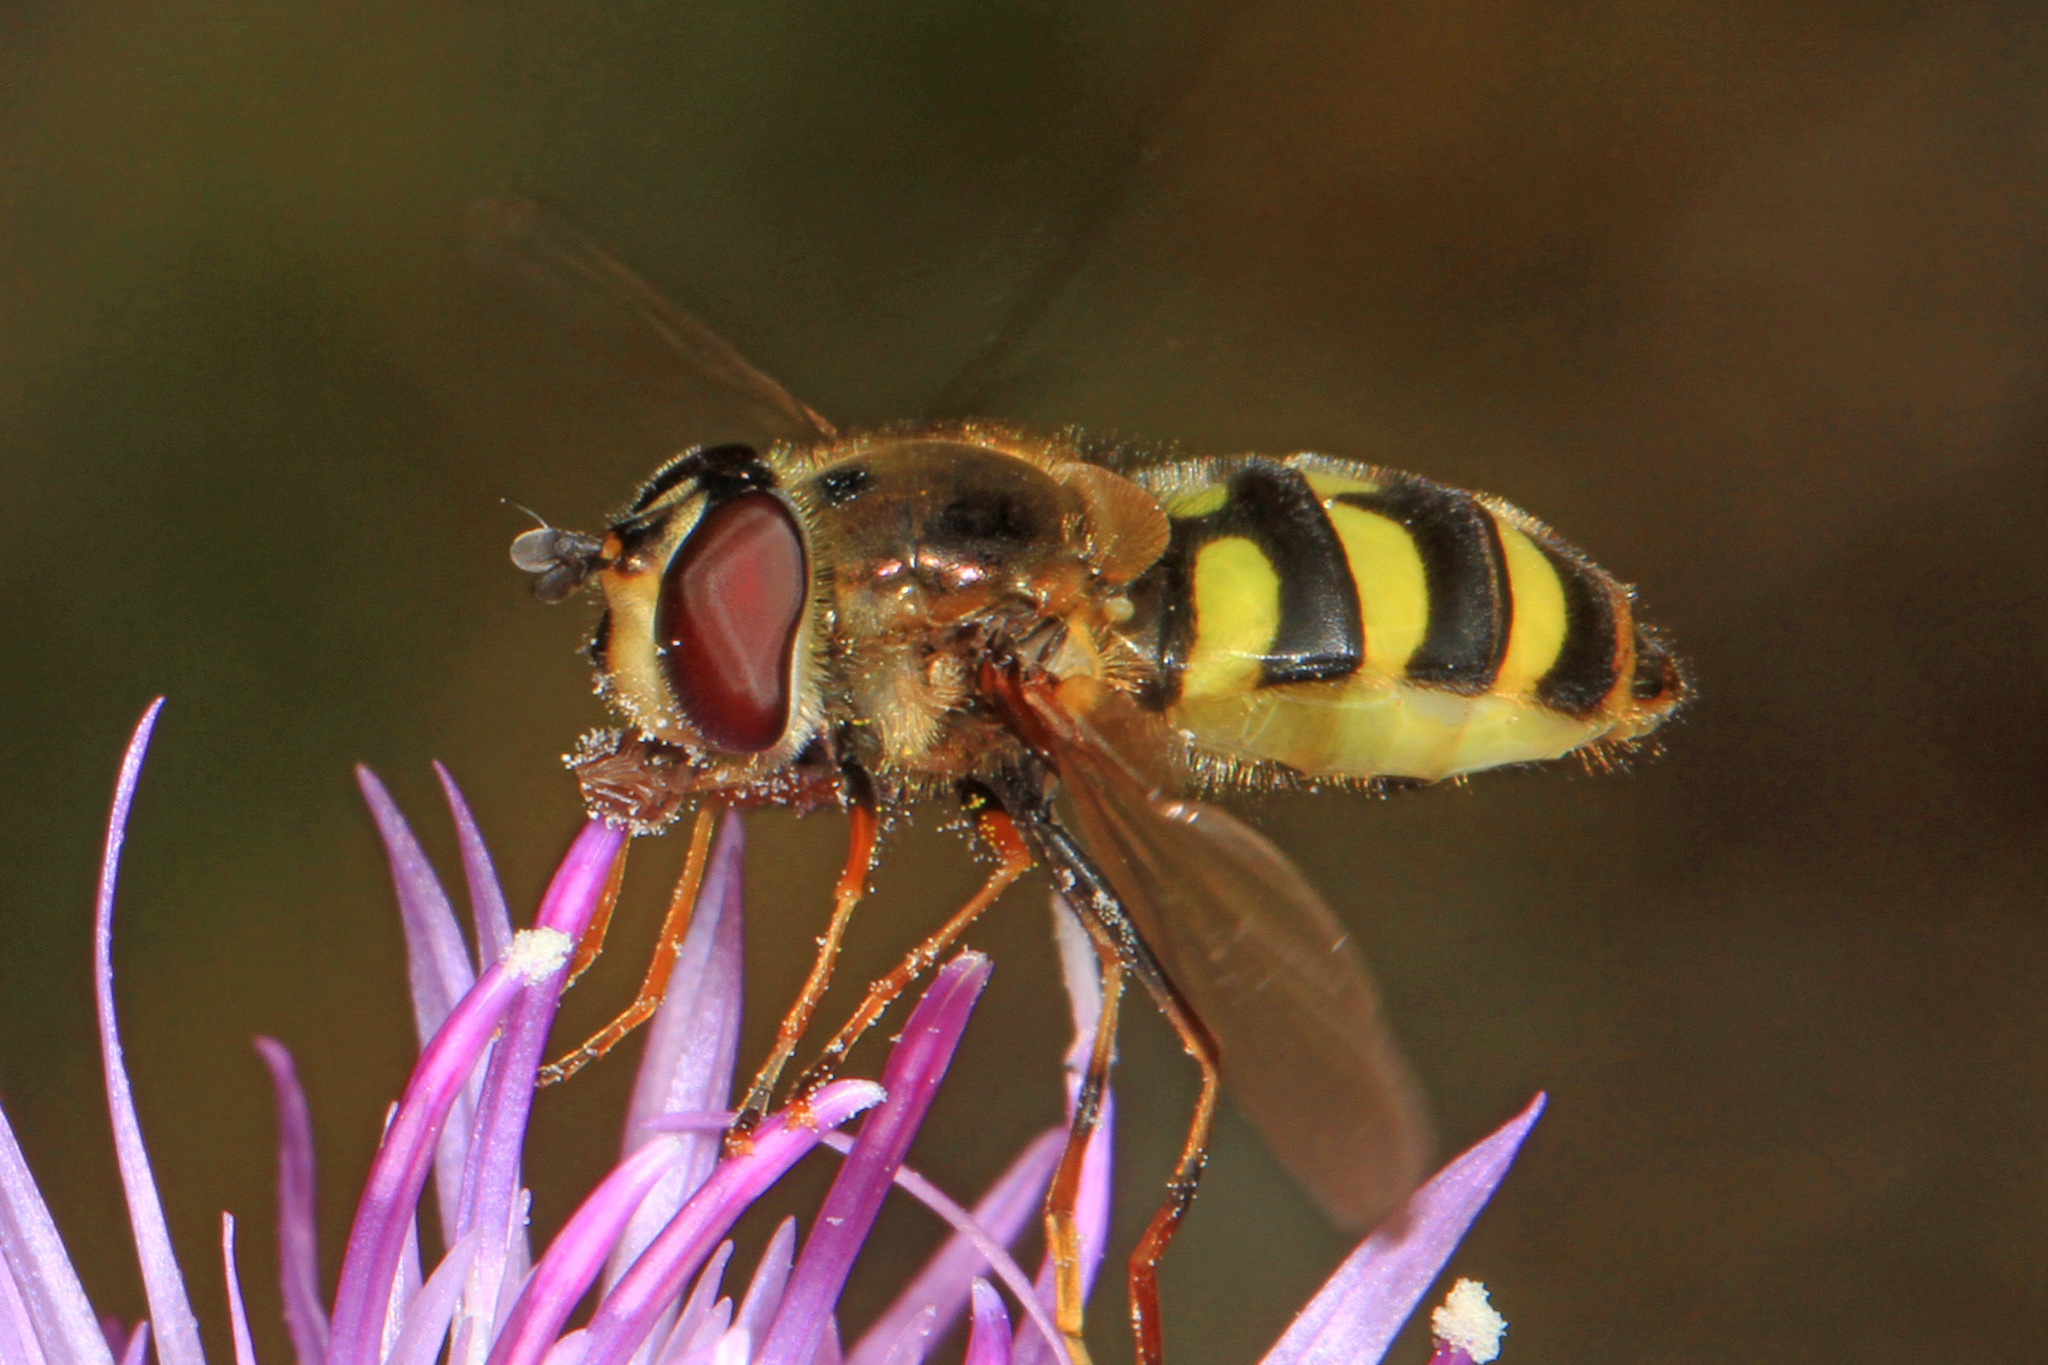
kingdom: Animalia
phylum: Arthropoda
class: Insecta
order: Diptera
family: Syrphidae
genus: Megasyrphus
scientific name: Megasyrphus laxus
